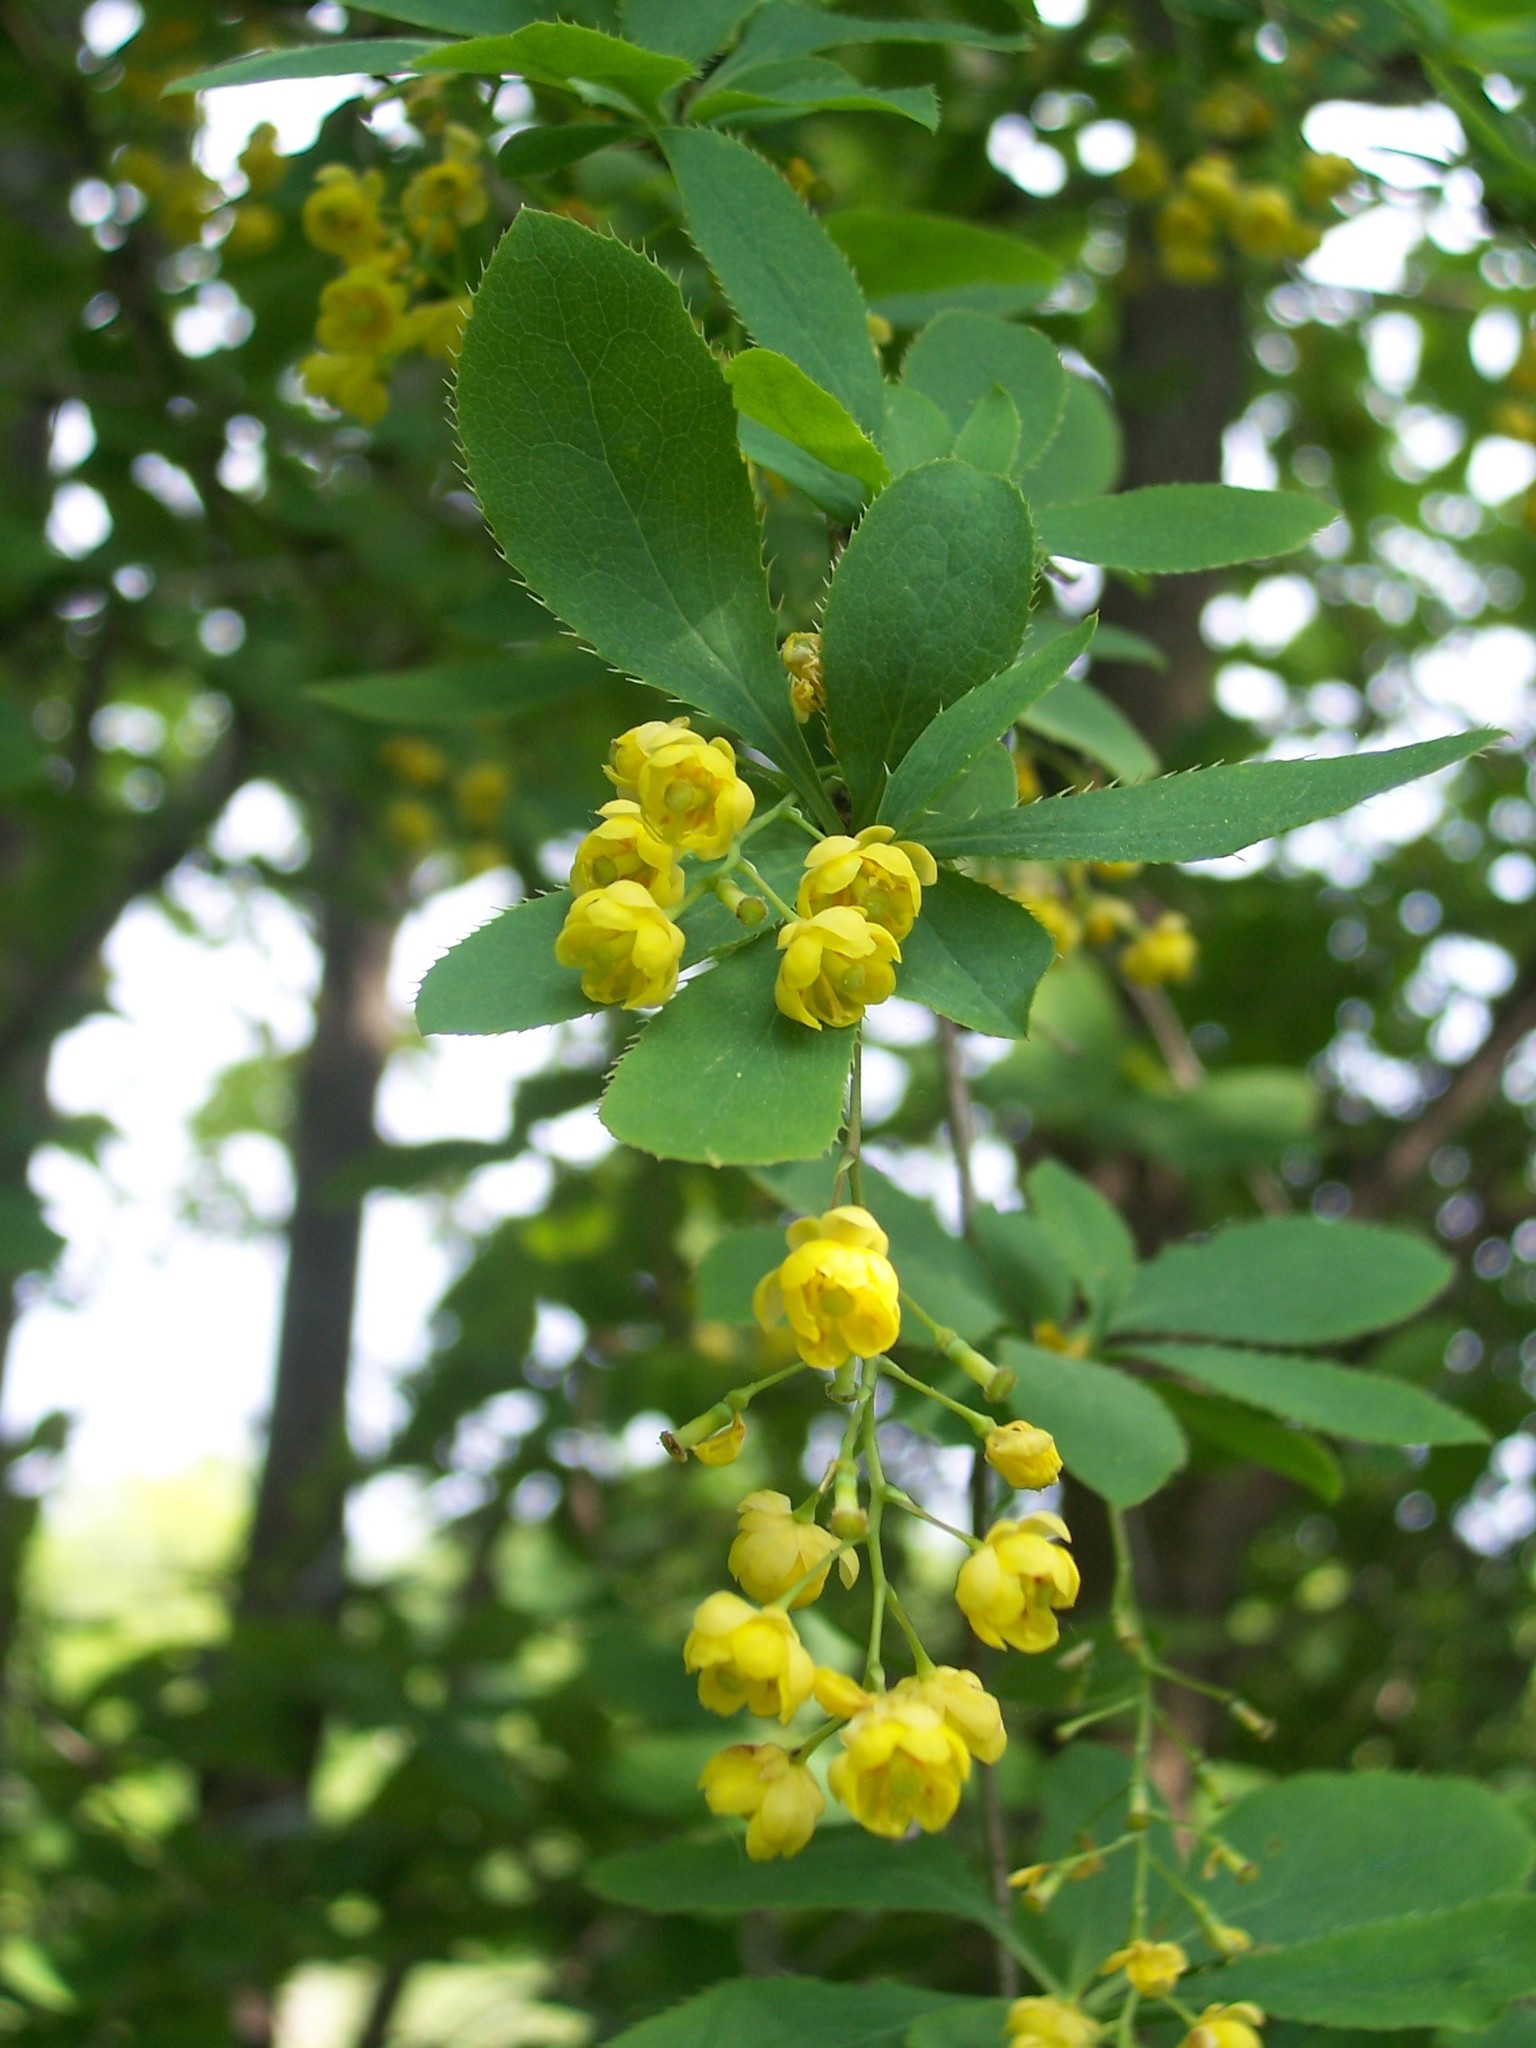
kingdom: Plantae
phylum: Tracheophyta
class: Magnoliopsida
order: Ranunculales
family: Berberidaceae
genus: Berberis
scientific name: Berberis vulgaris
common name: Barberry
